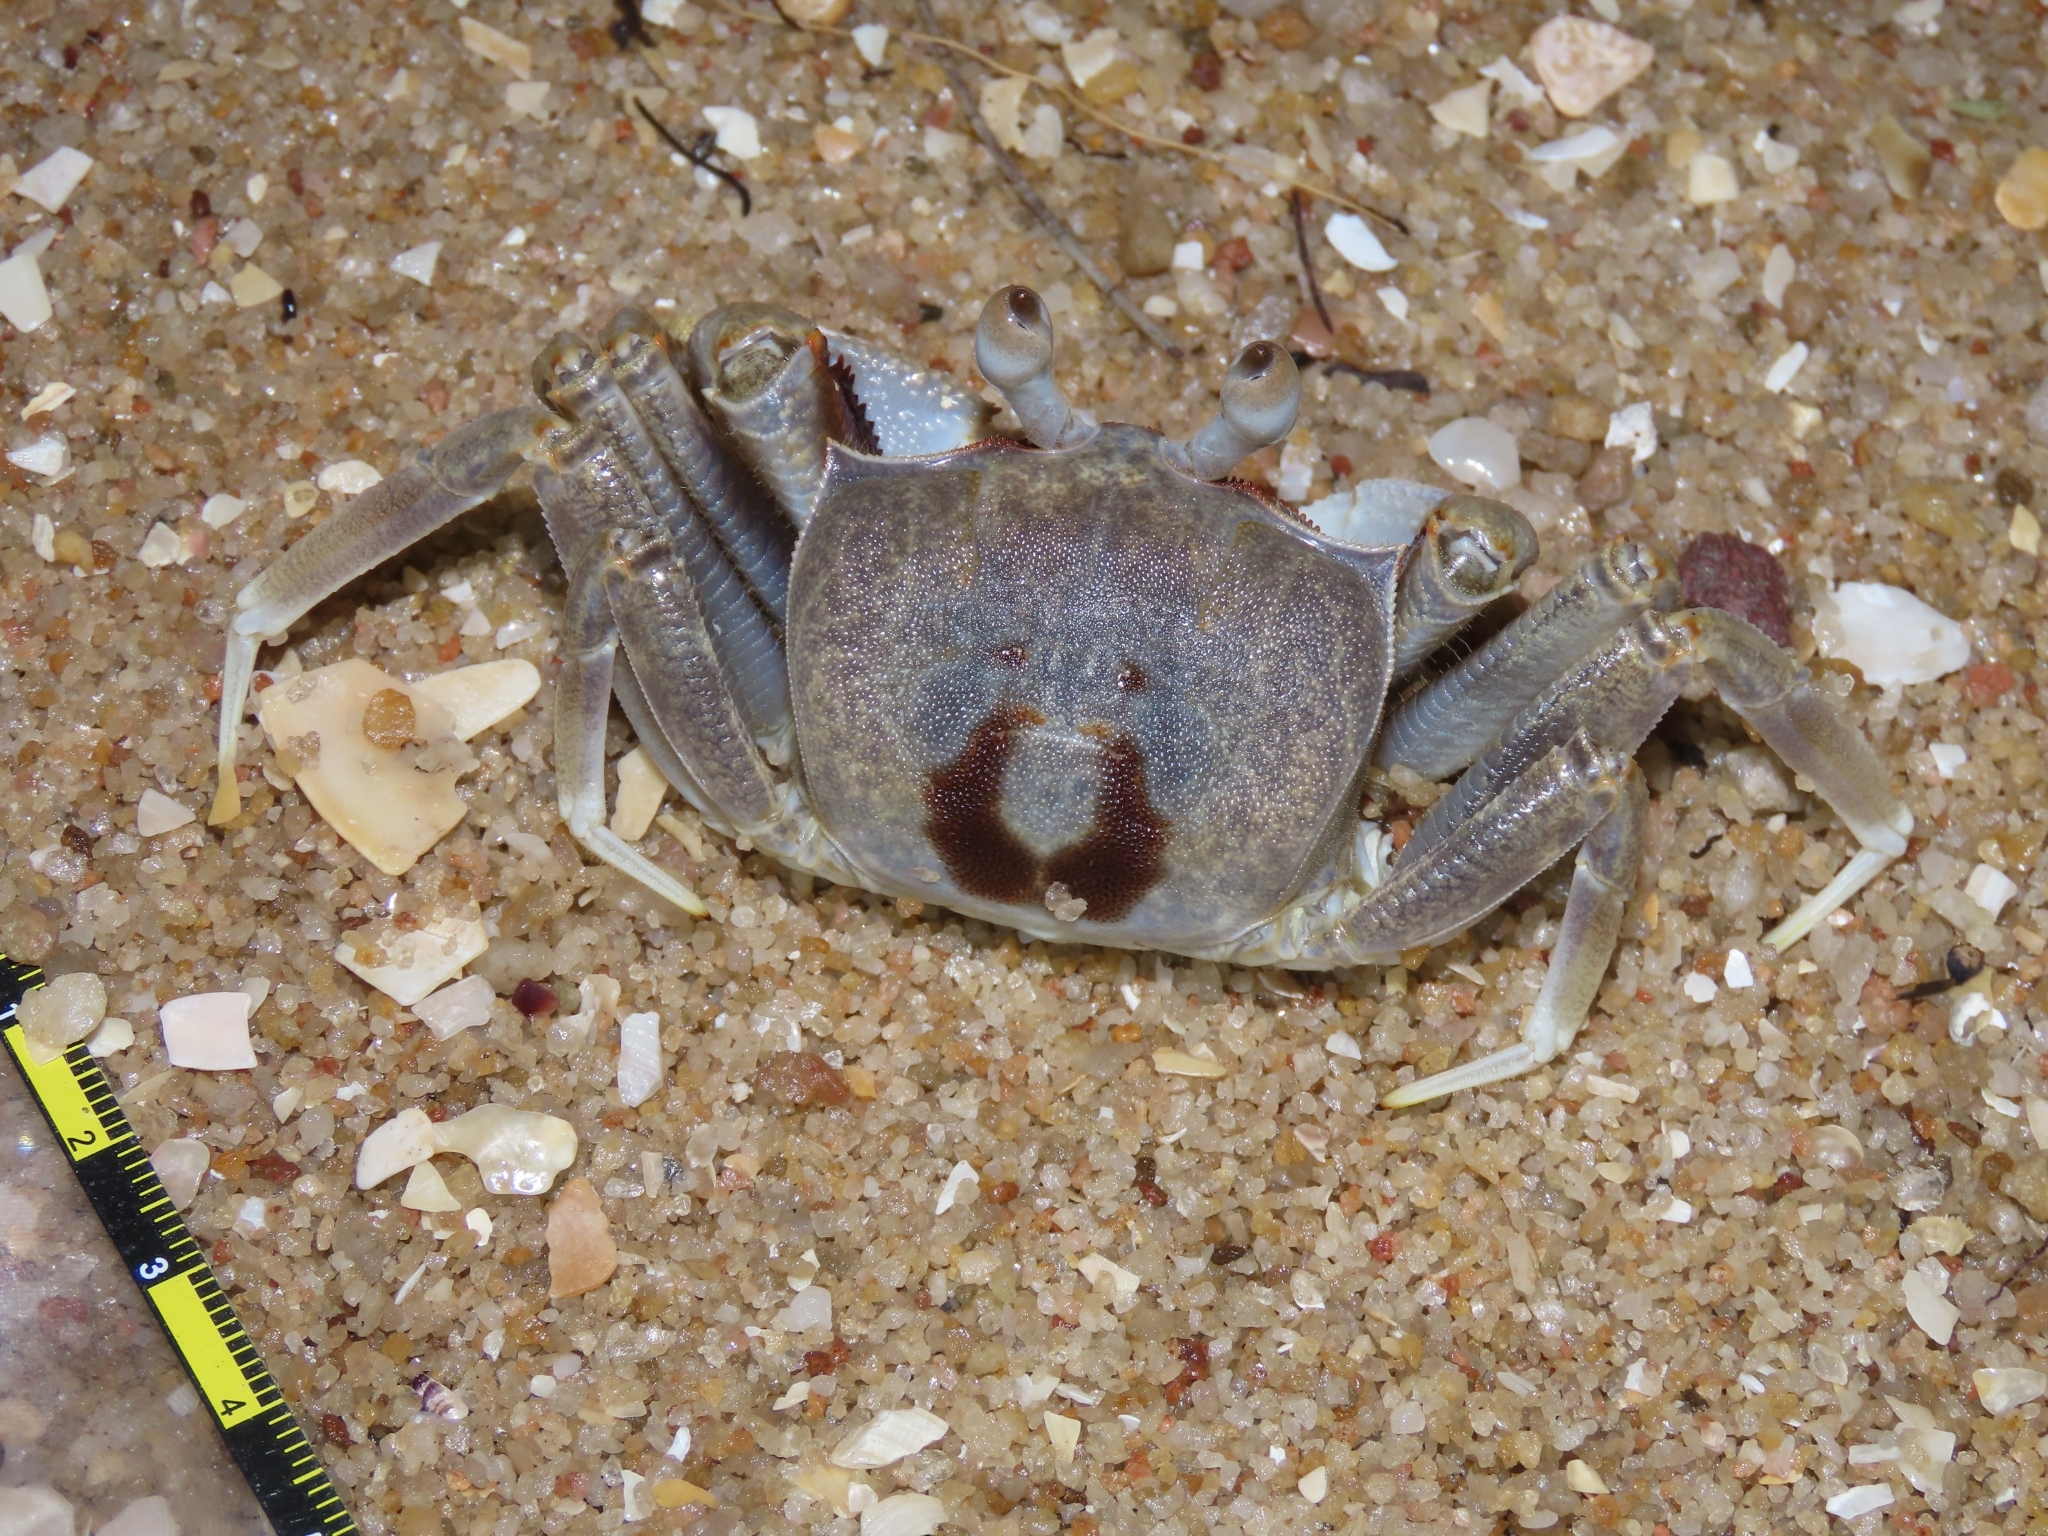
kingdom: Animalia
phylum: Arthropoda
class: Malacostraca
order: Decapoda
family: Ocypodidae
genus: Ocypode
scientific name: Ocypode ceratophthalmus
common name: Indo-pacific ghost crab
